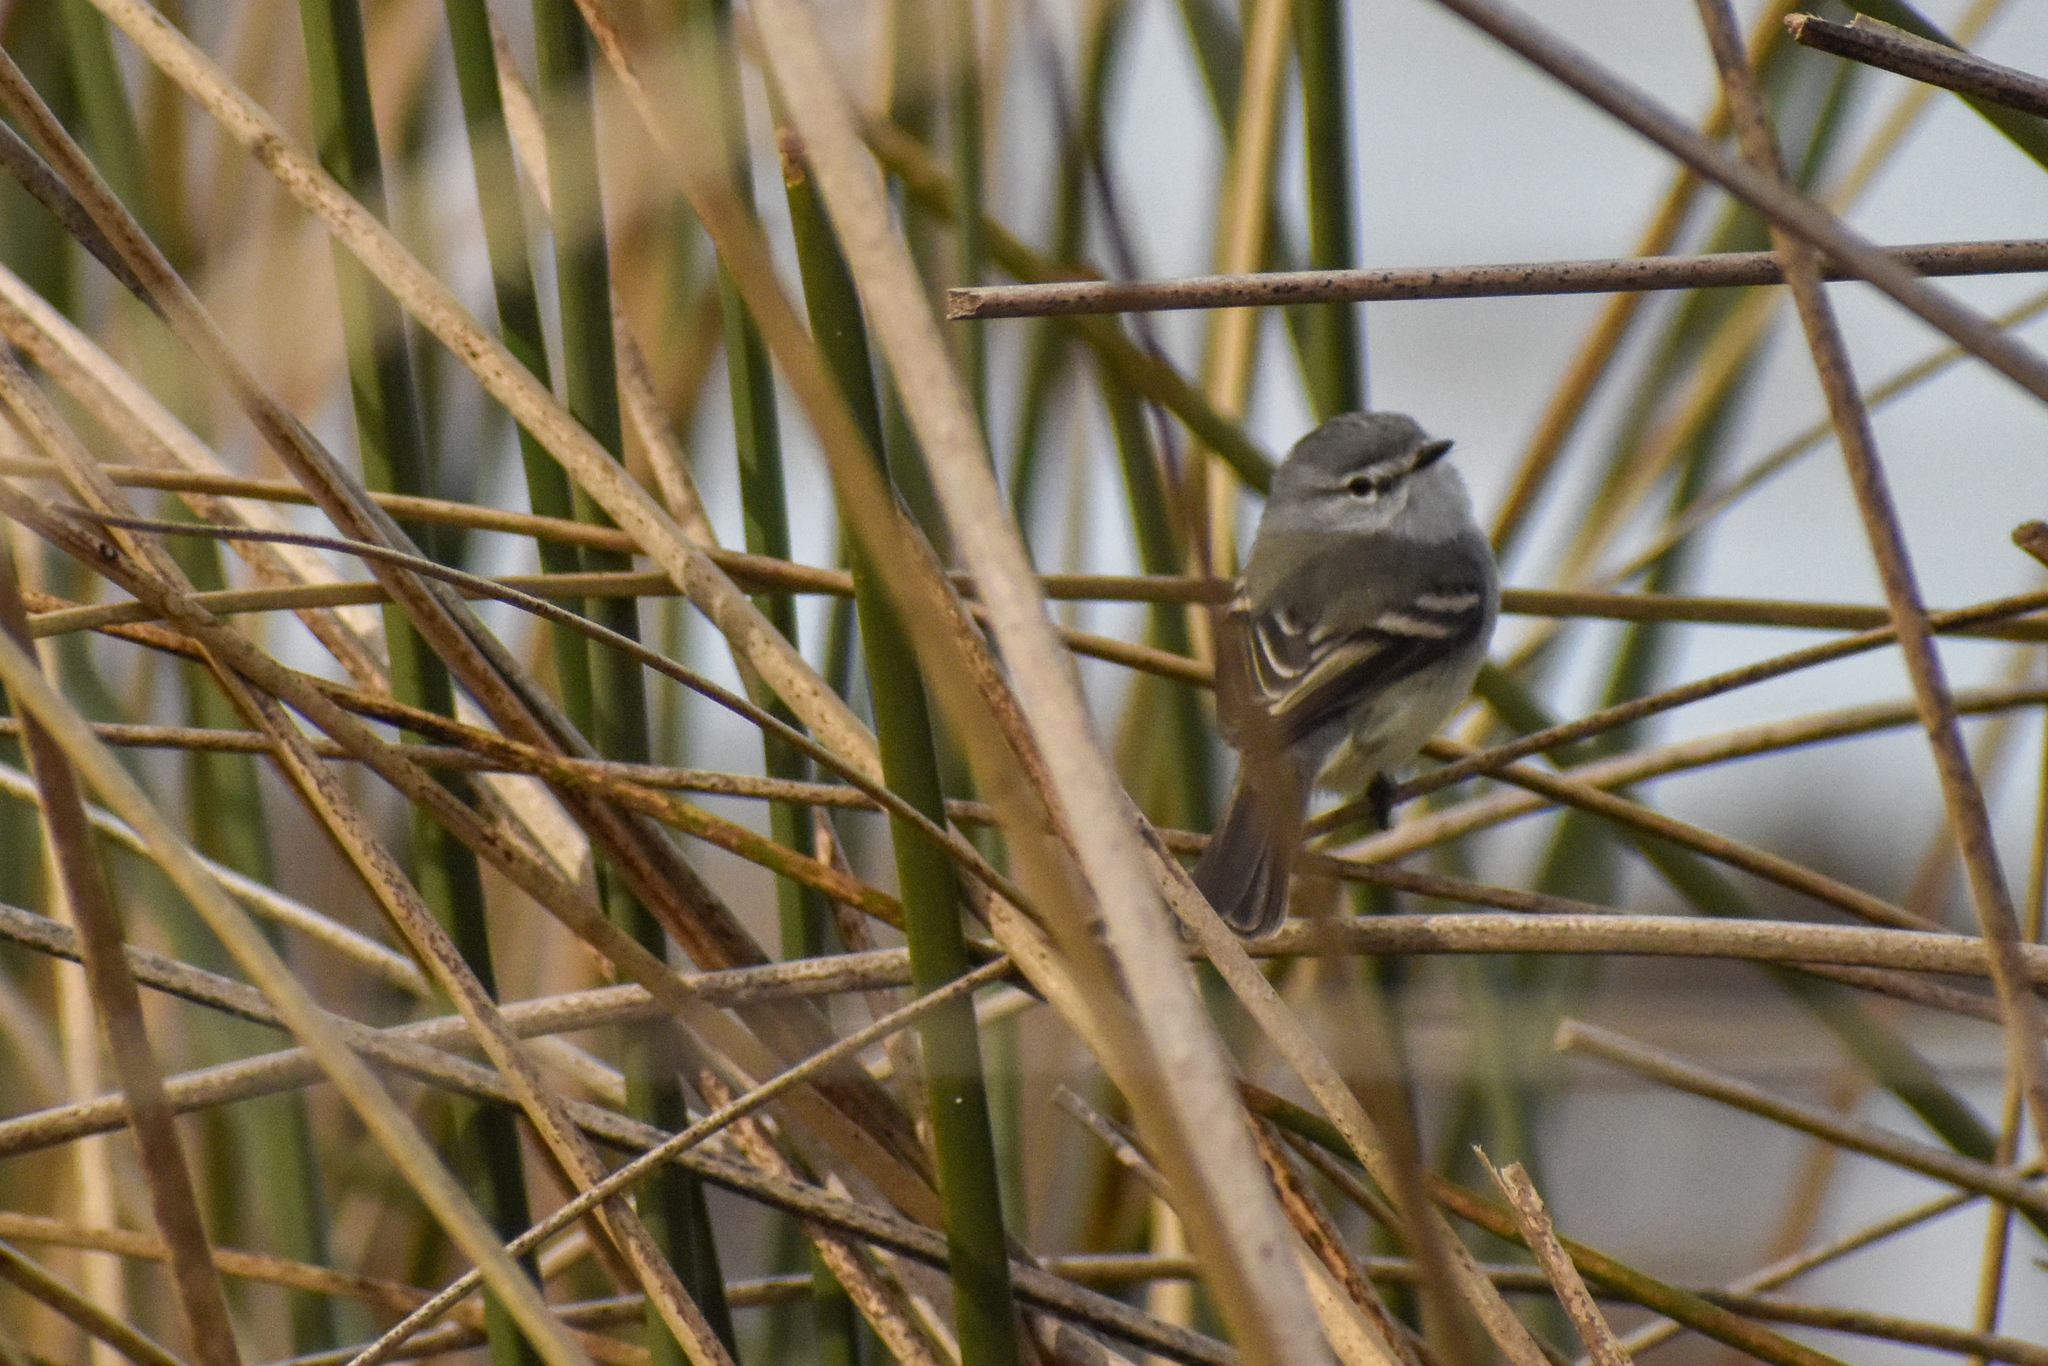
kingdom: Animalia
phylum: Chordata
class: Aves
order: Passeriformes
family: Tyrannidae
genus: Serpophaga
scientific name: Serpophaga subcristata
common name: White-crested tyrannulet
